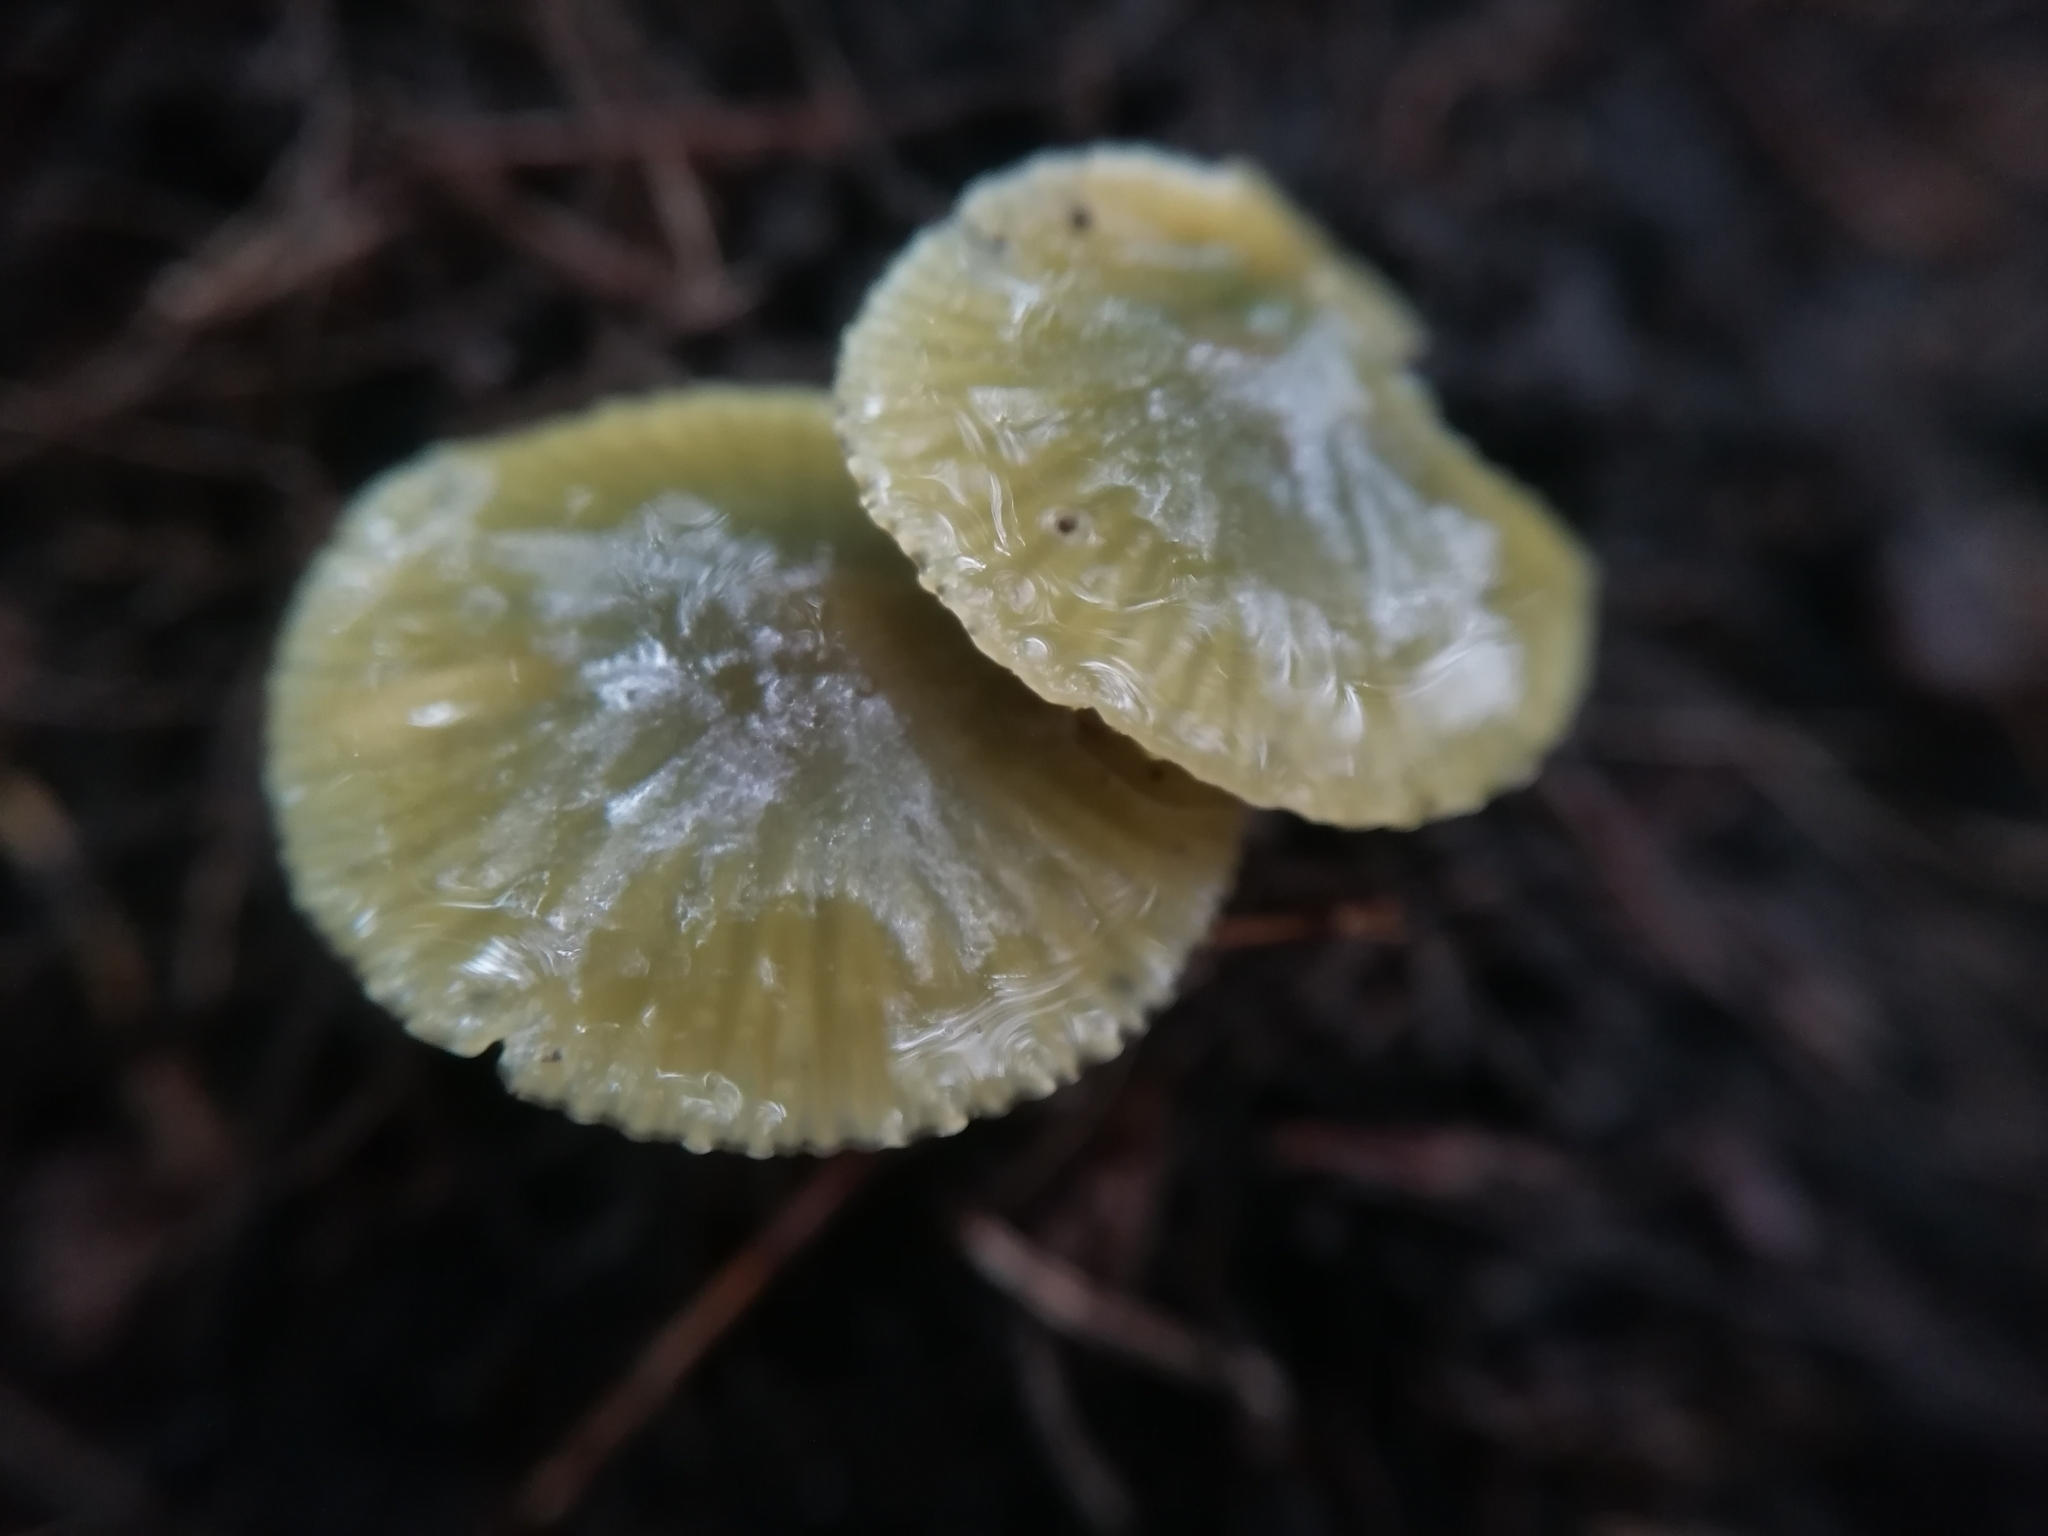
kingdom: Fungi
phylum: Basidiomycota
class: Agaricomycetes
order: Agaricales
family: Hygrophoraceae
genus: Gliophorus
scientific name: Gliophorus psittacinus
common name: Parrot wax-cap
